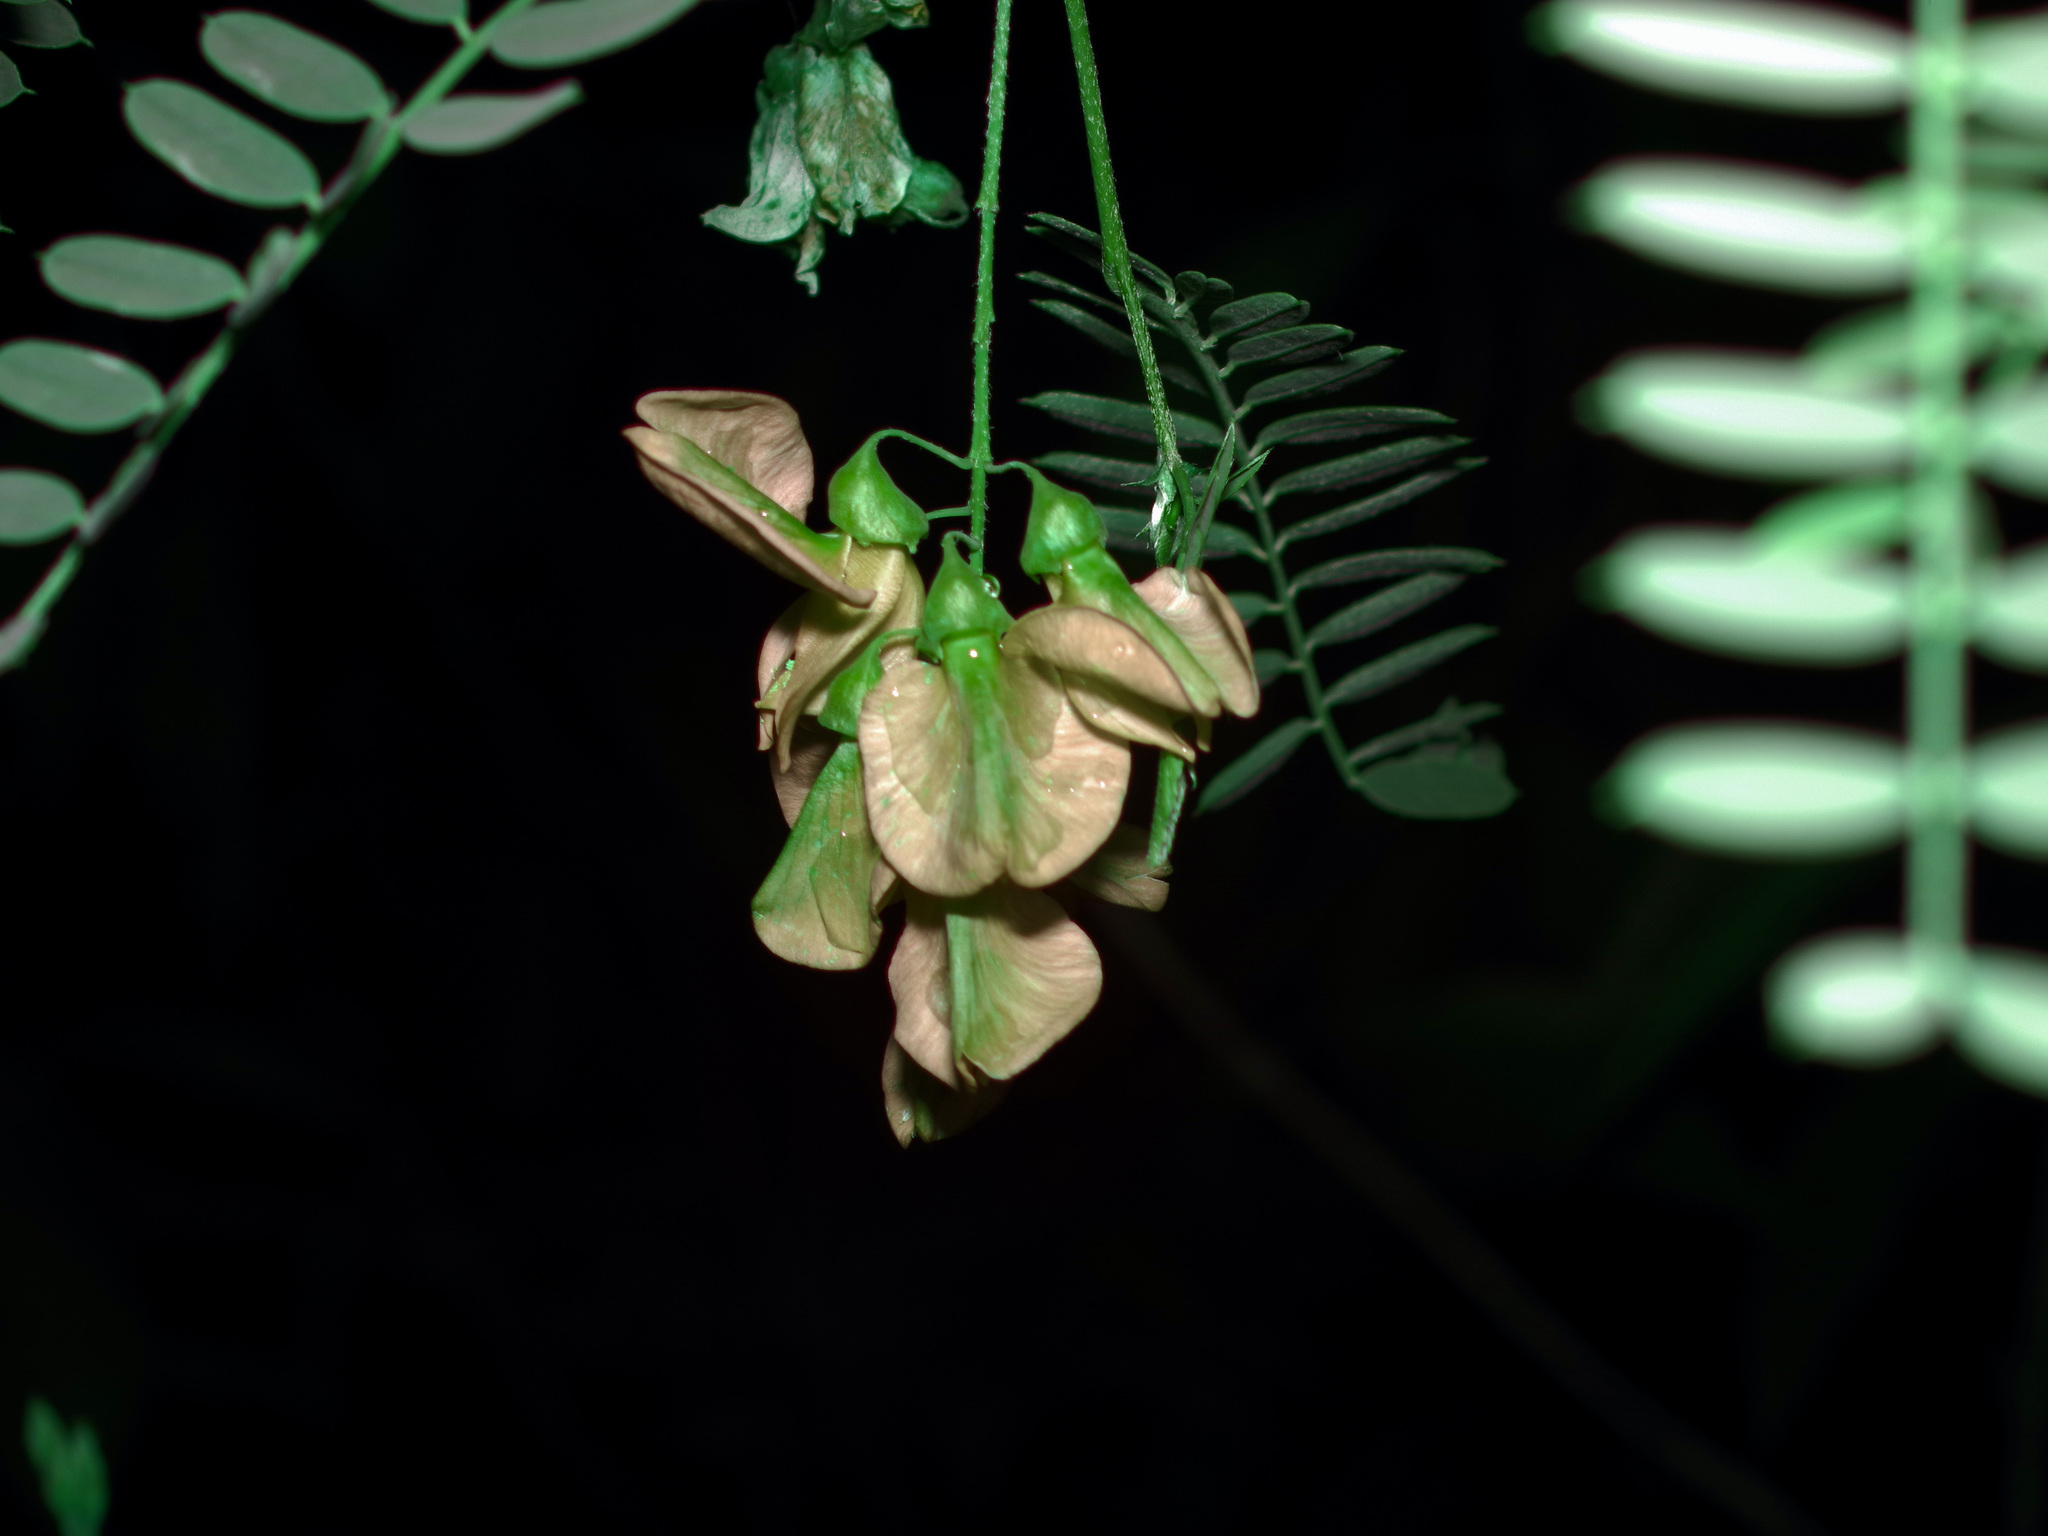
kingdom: Plantae
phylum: Tracheophyta
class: Magnoliopsida
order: Fabales
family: Fabaceae
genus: Sesbania
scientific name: Sesbania drummondii
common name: Poison-bean
